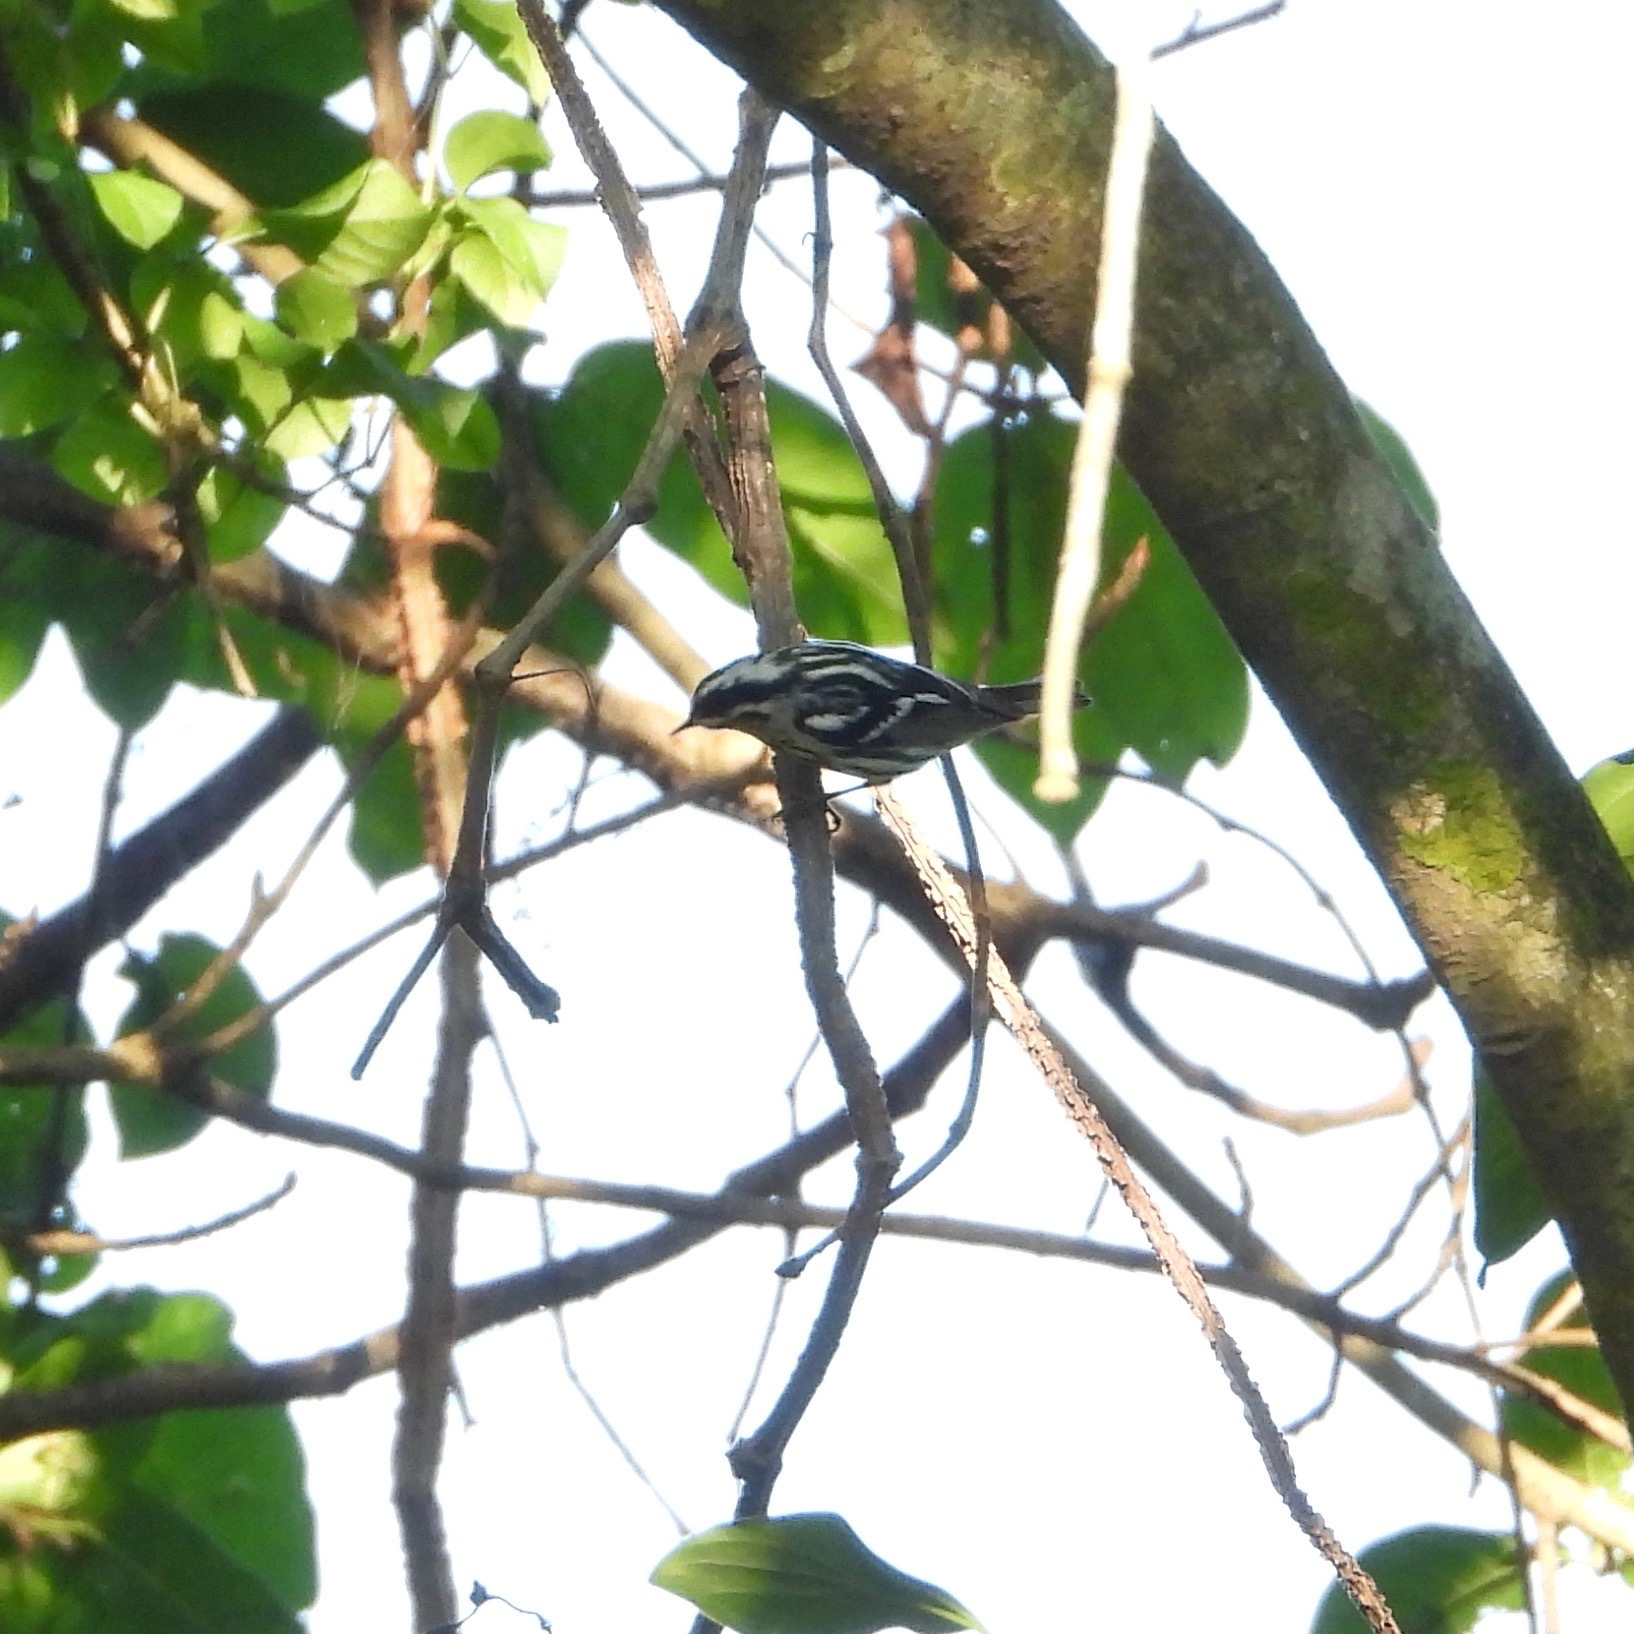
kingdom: Animalia
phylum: Chordata
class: Aves
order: Passeriformes
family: Parulidae
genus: Mniotilta
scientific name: Mniotilta varia
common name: Black-and-white warbler
